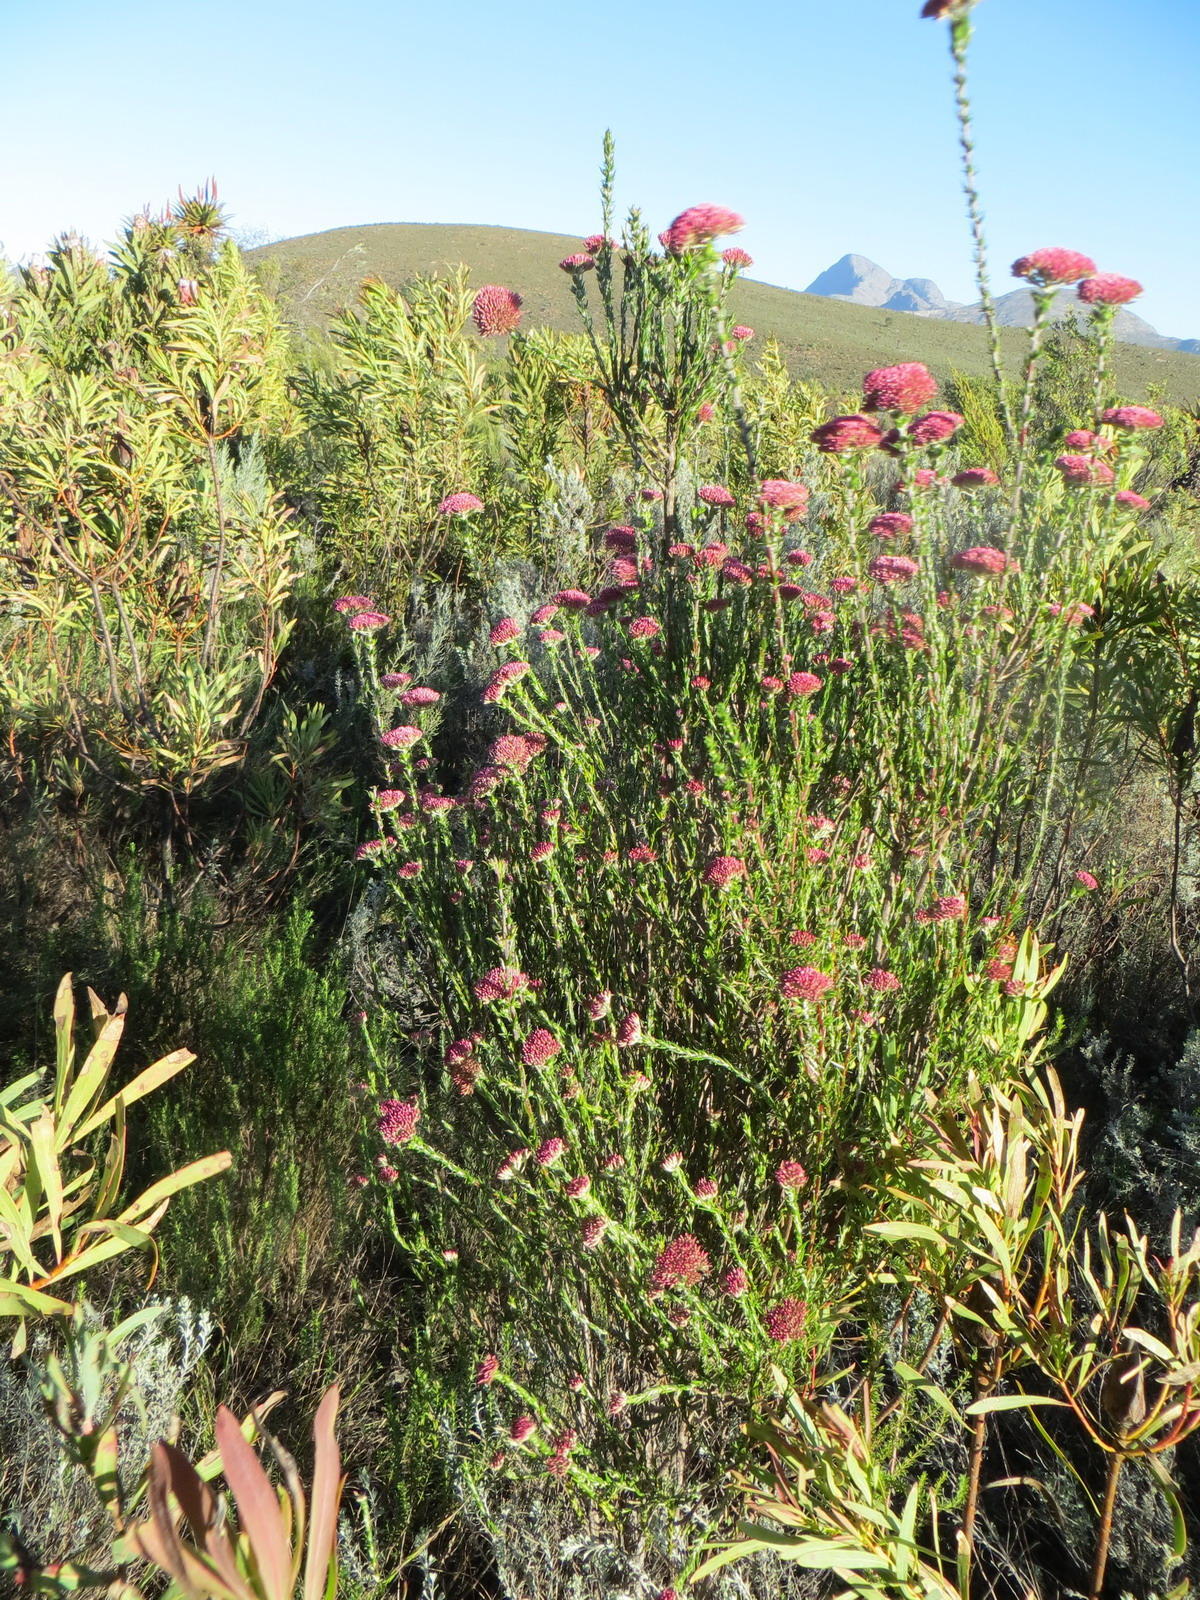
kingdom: Plantae
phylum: Tracheophyta
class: Magnoliopsida
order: Asterales
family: Asteraceae
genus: Metalasia
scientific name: Metalasia massonii
